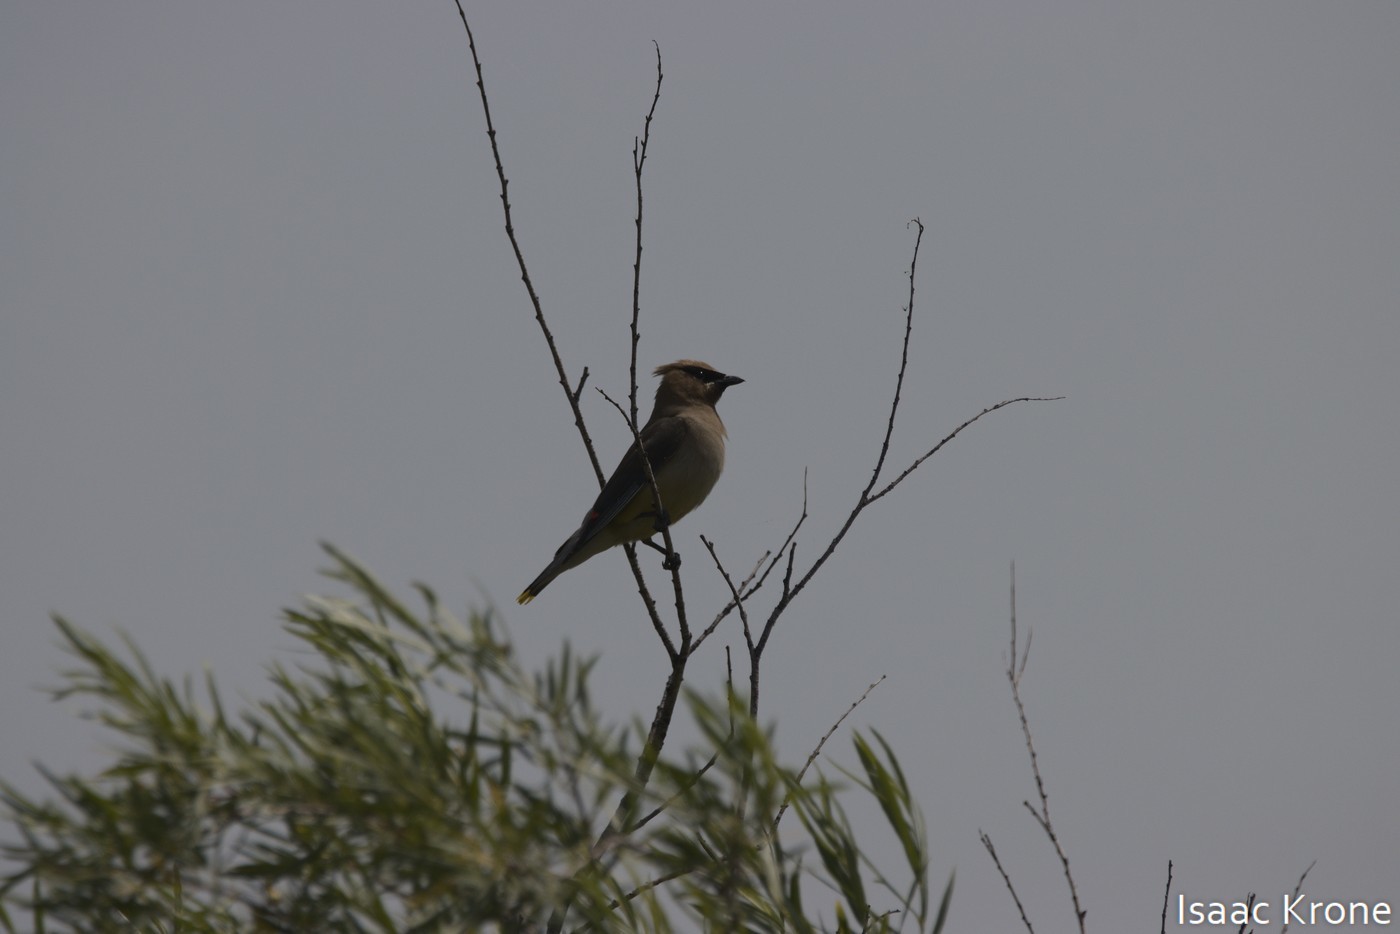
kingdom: Animalia
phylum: Chordata
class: Aves
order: Passeriformes
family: Bombycillidae
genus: Bombycilla
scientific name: Bombycilla cedrorum
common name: Cedar waxwing
